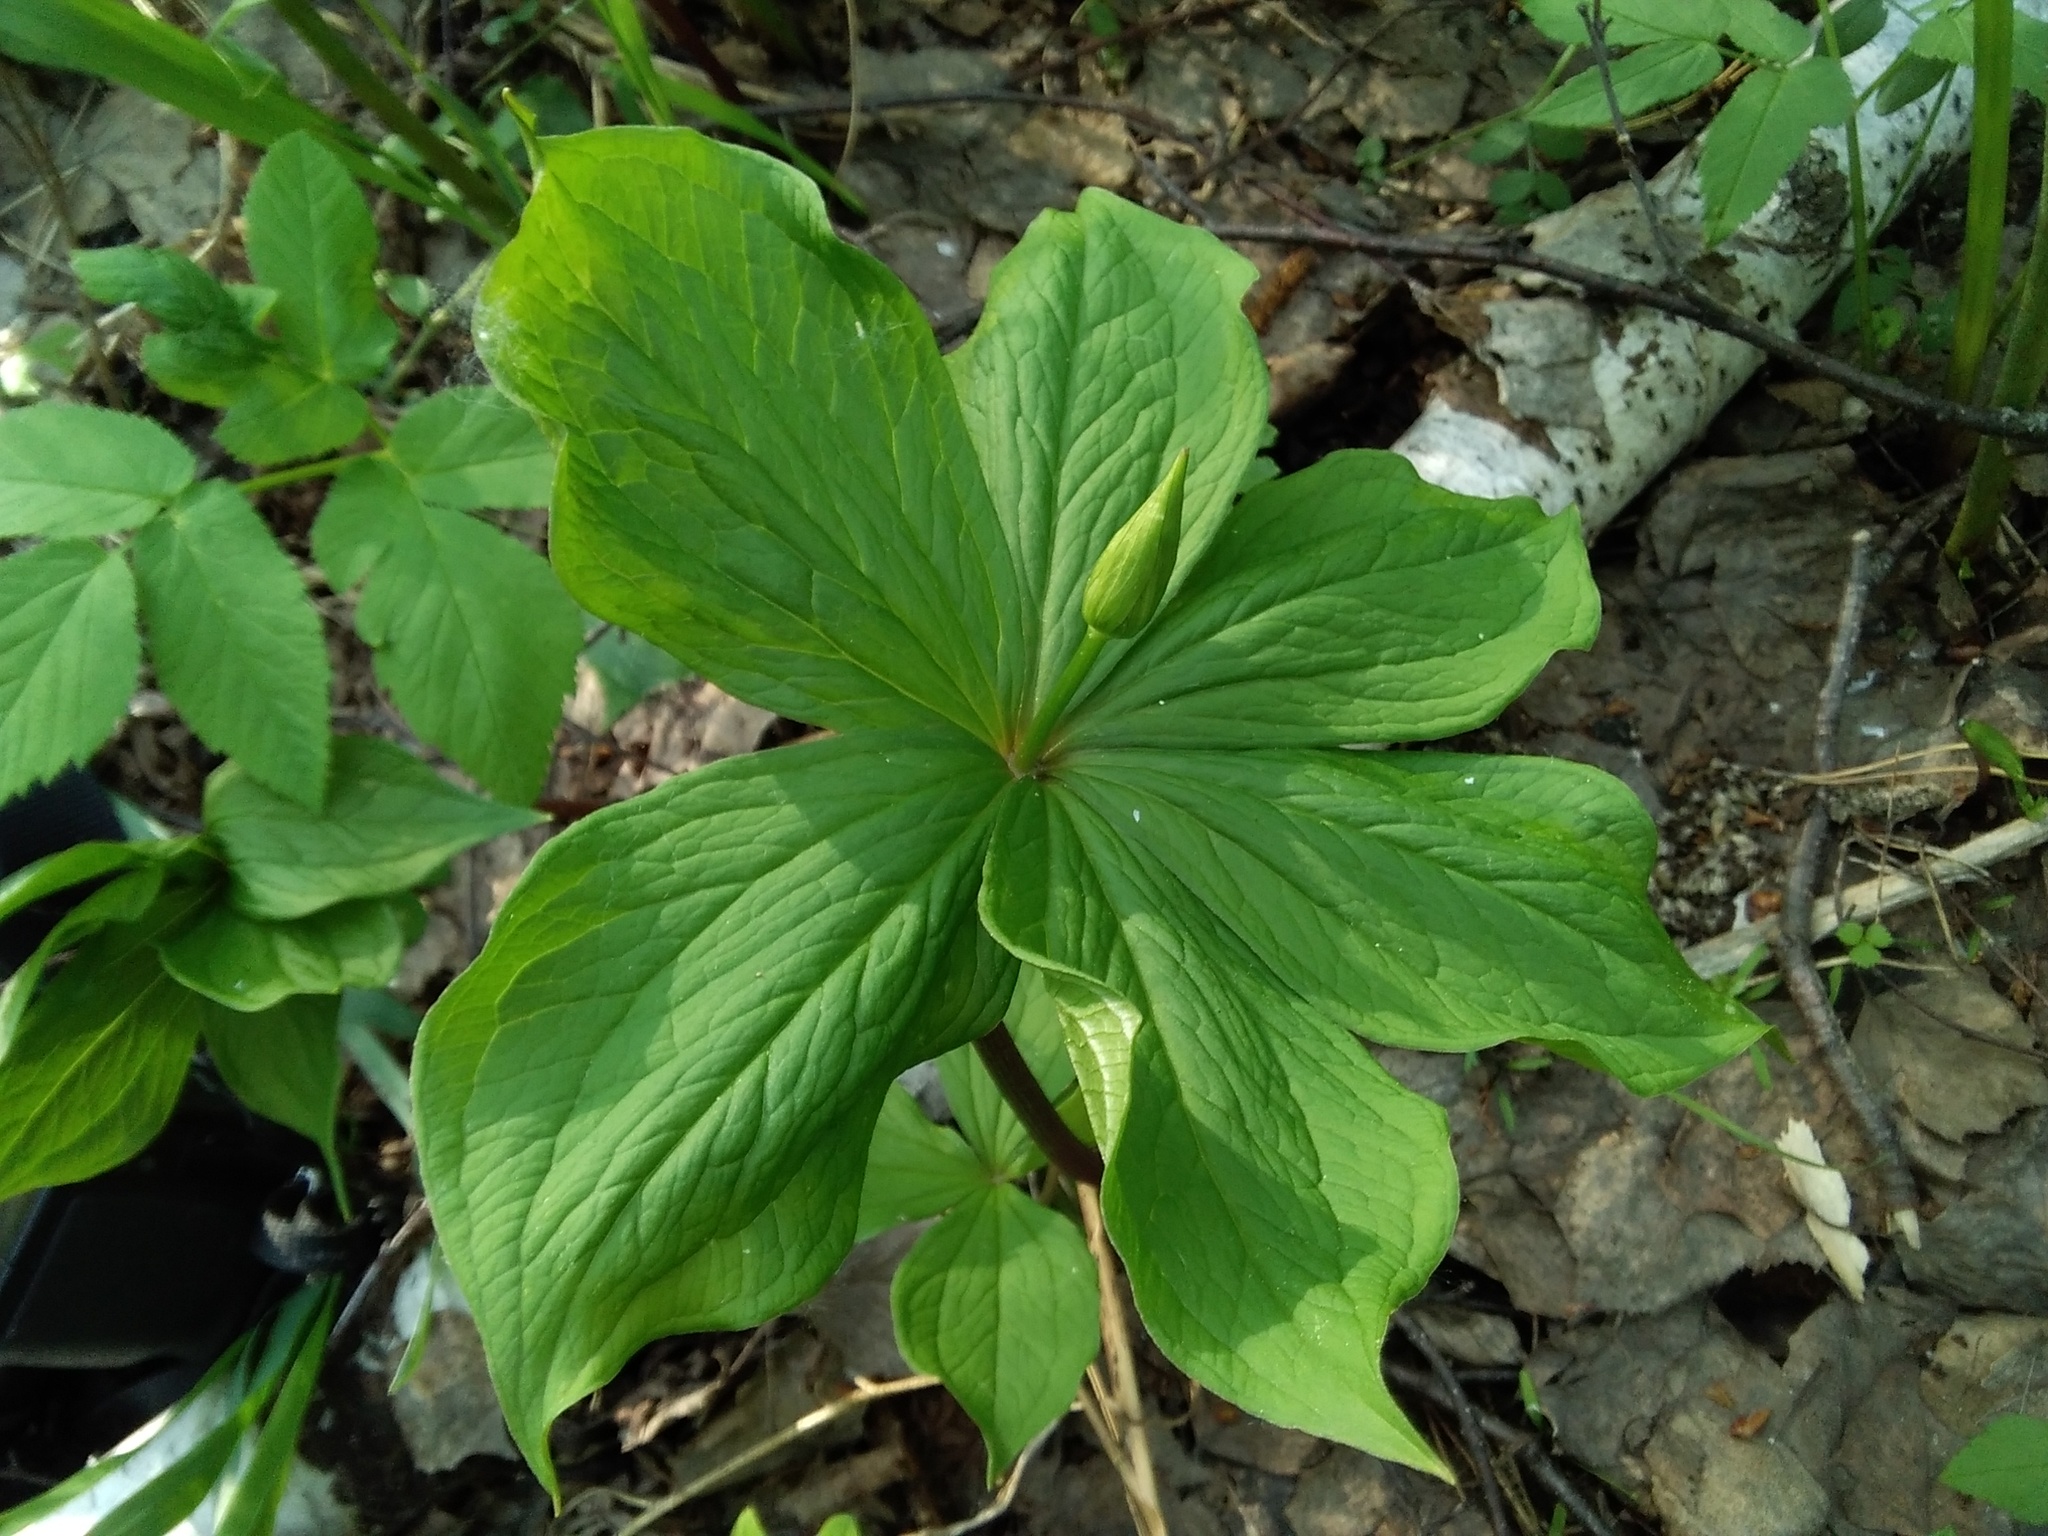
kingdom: Plantae
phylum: Tracheophyta
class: Liliopsida
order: Liliales
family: Melanthiaceae
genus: Paris
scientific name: Paris verticillata
